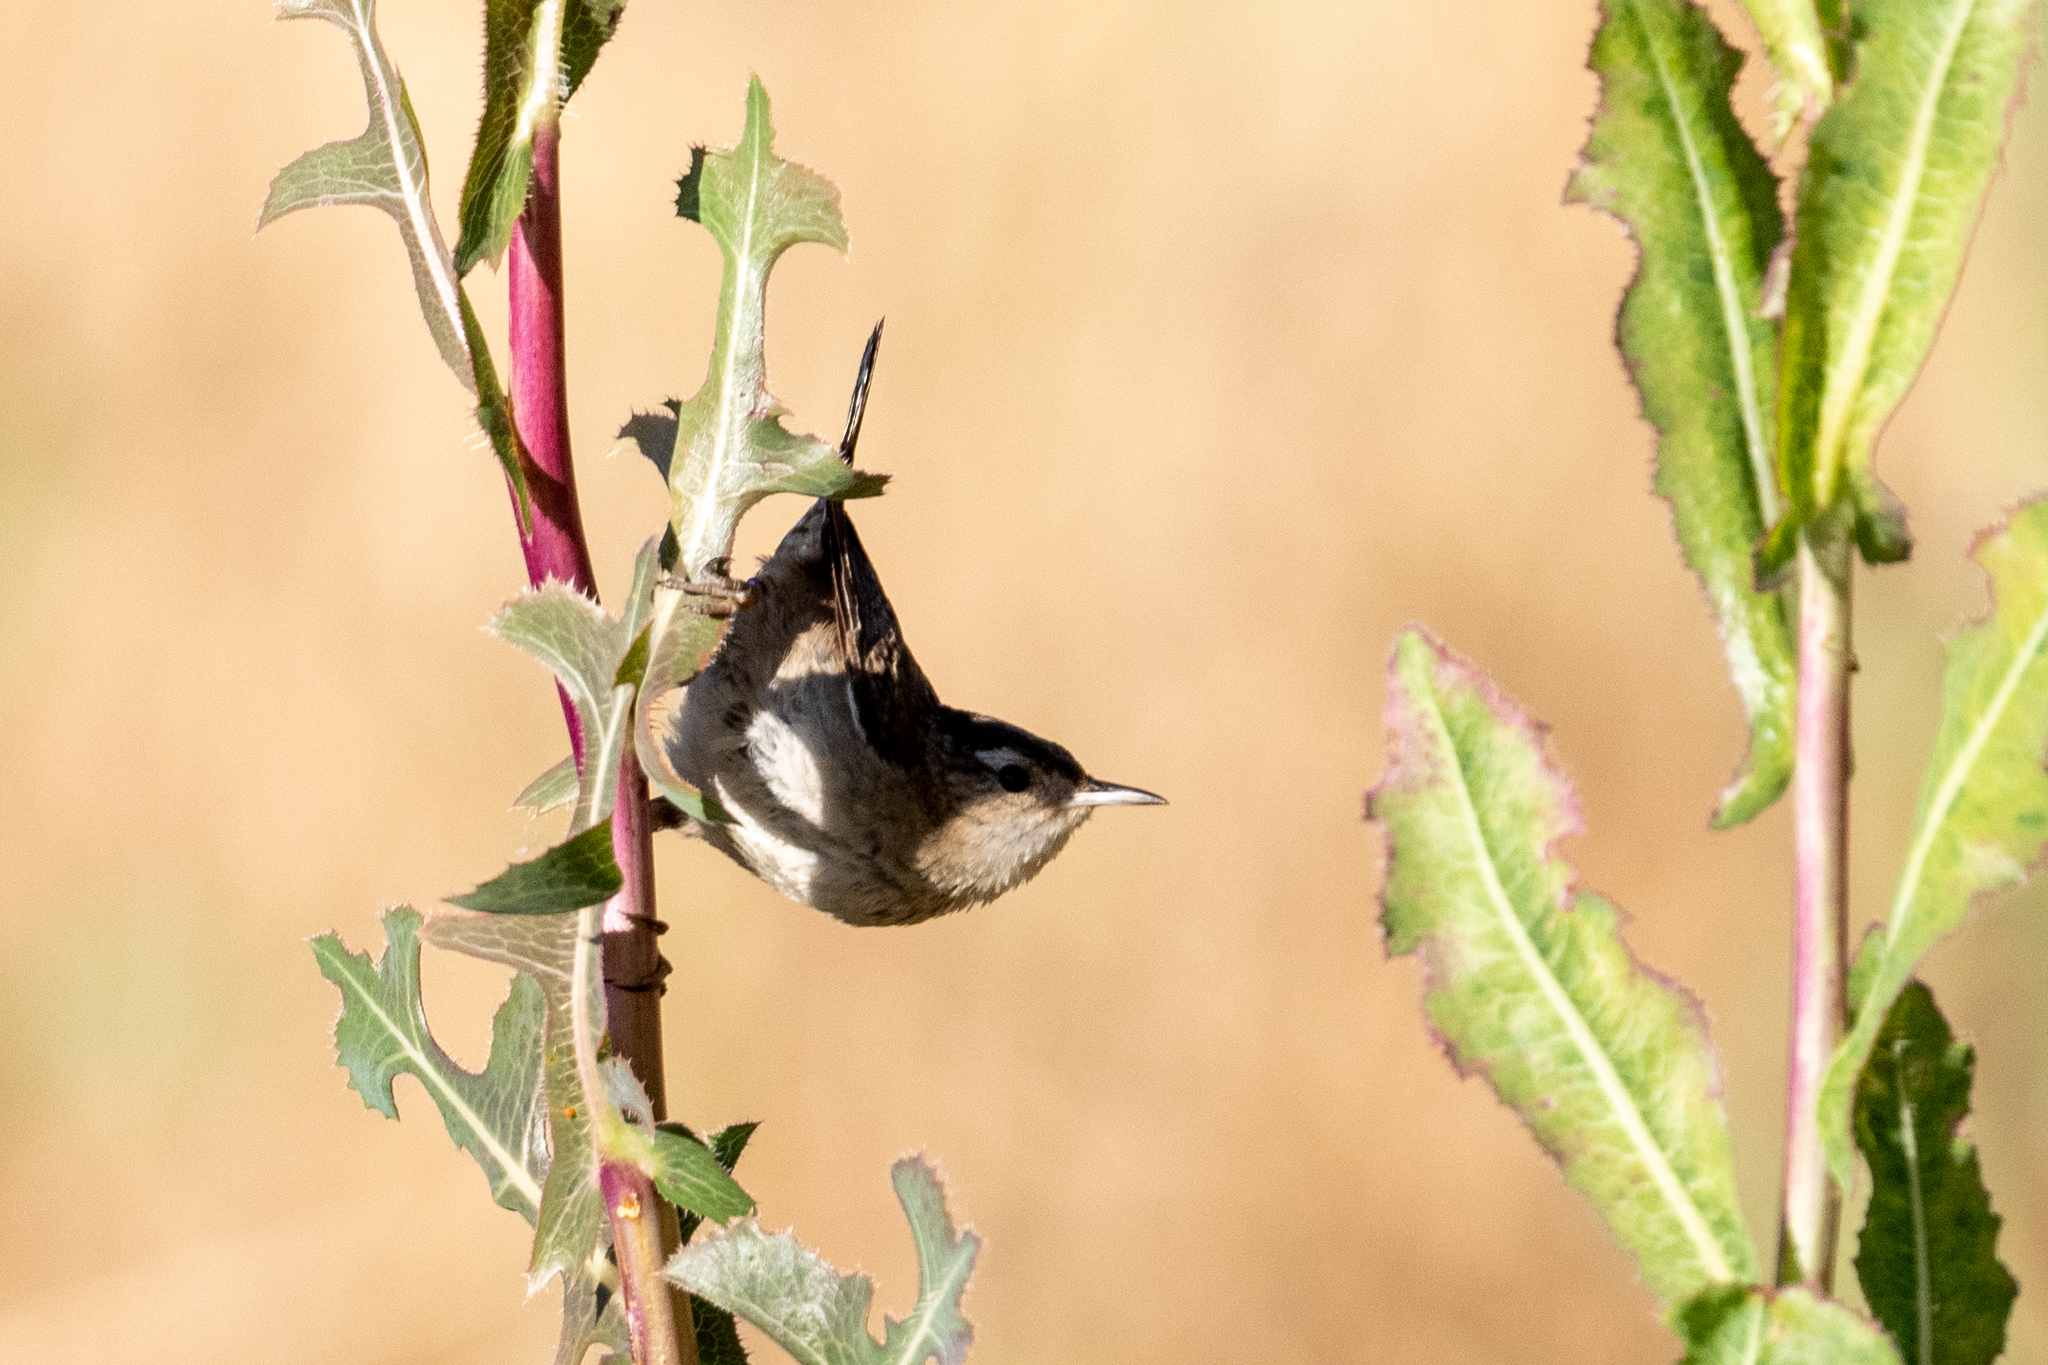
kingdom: Animalia
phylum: Chordata
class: Aves
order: Passeriformes
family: Troglodytidae
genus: Cistothorus
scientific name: Cistothorus palustris
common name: Marsh wren
